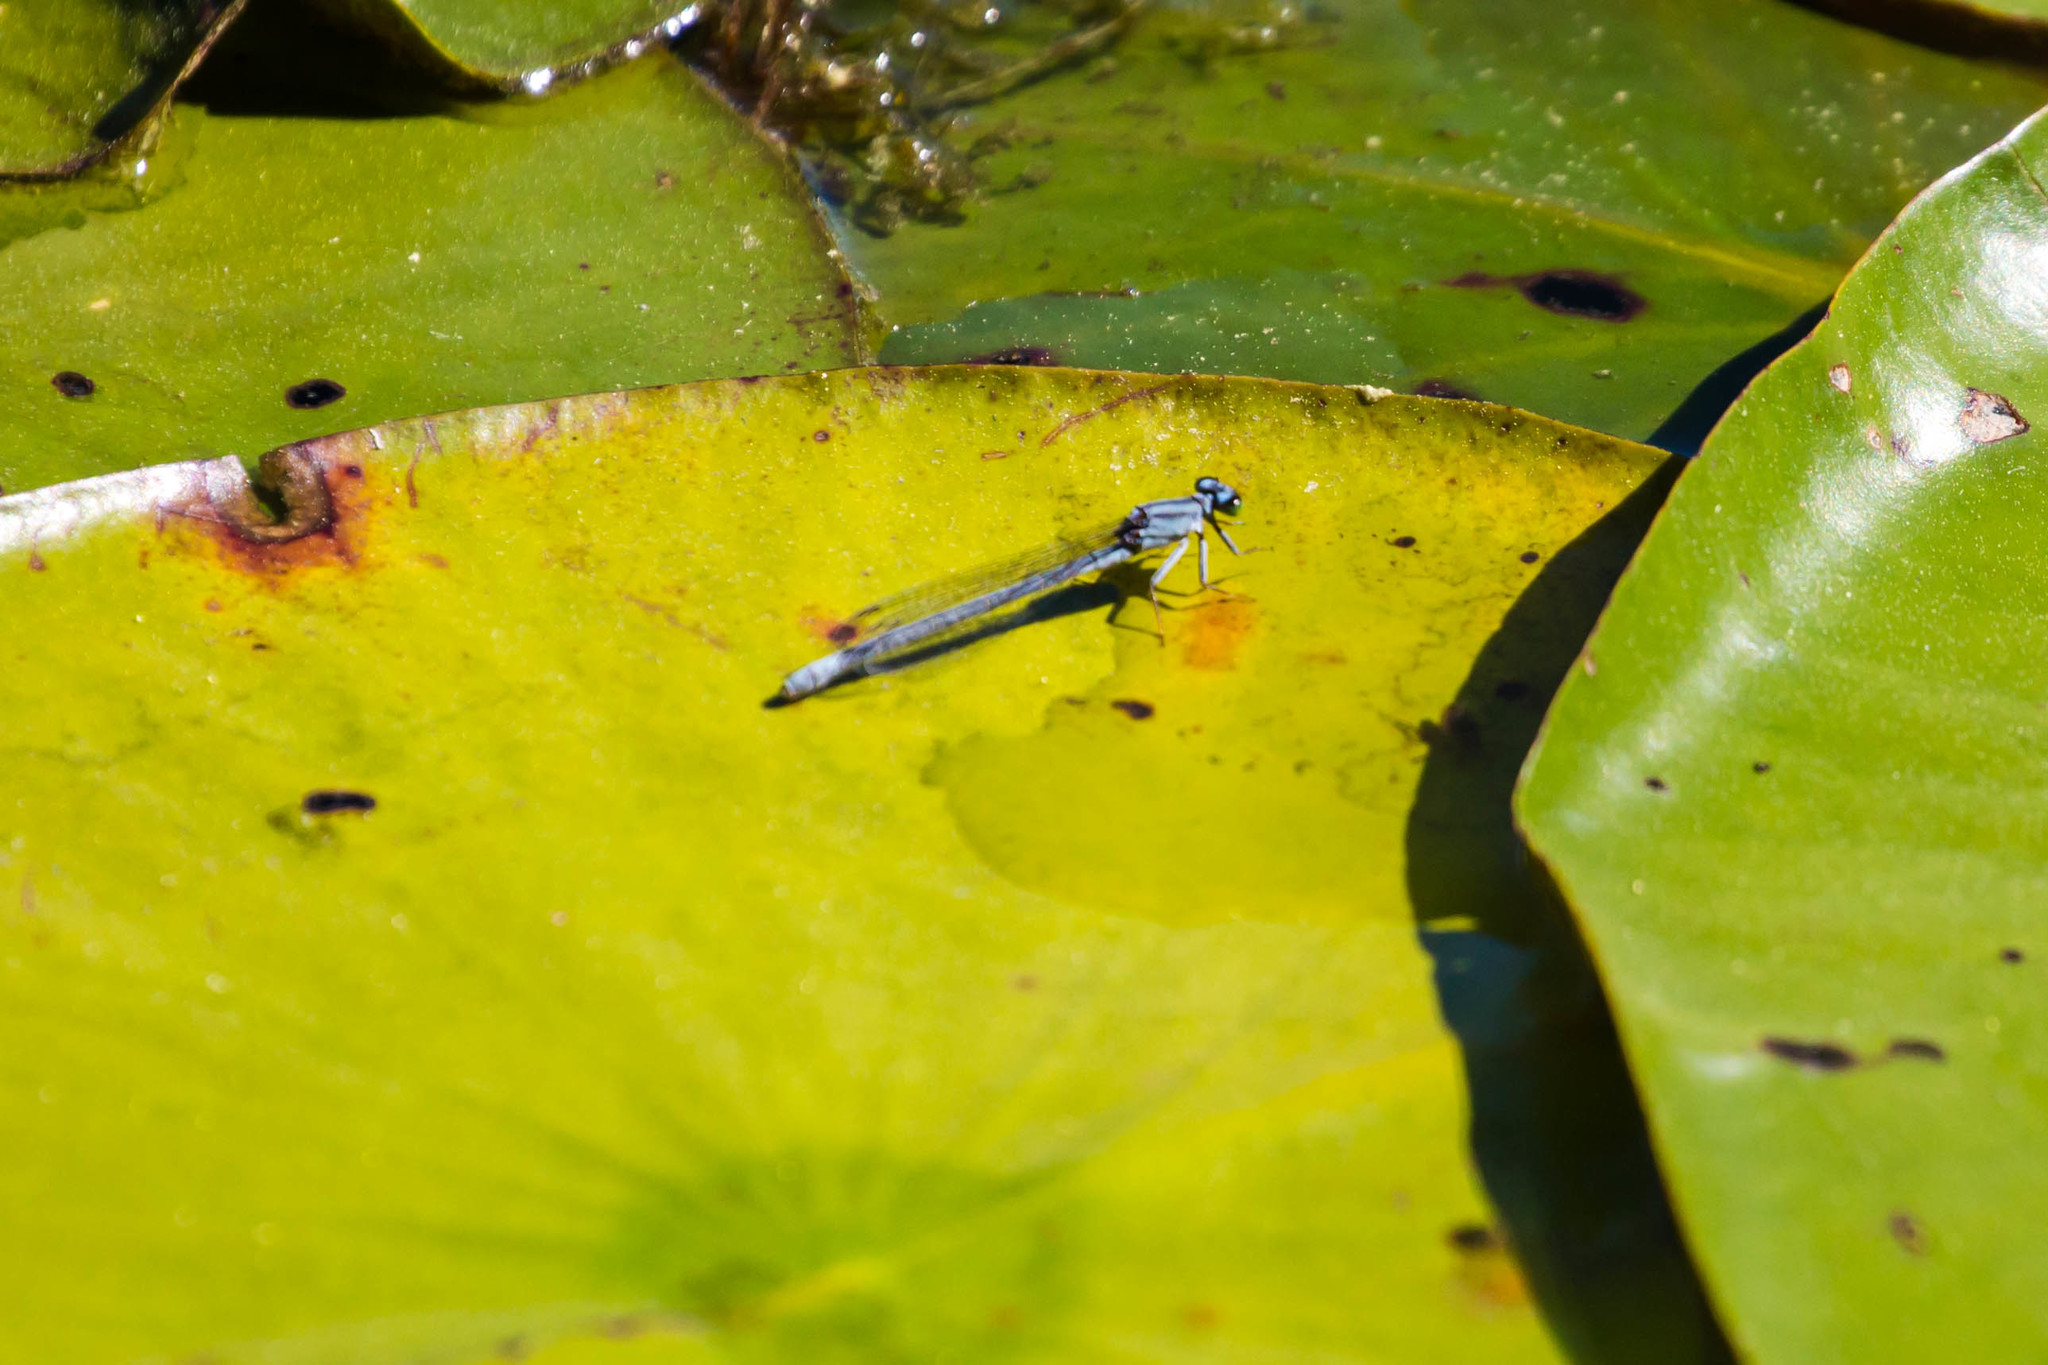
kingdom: Animalia
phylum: Arthropoda
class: Insecta
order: Odonata
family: Coenagrionidae
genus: Ischnura
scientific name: Ischnura kellicotti
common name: Lilypad forktail
